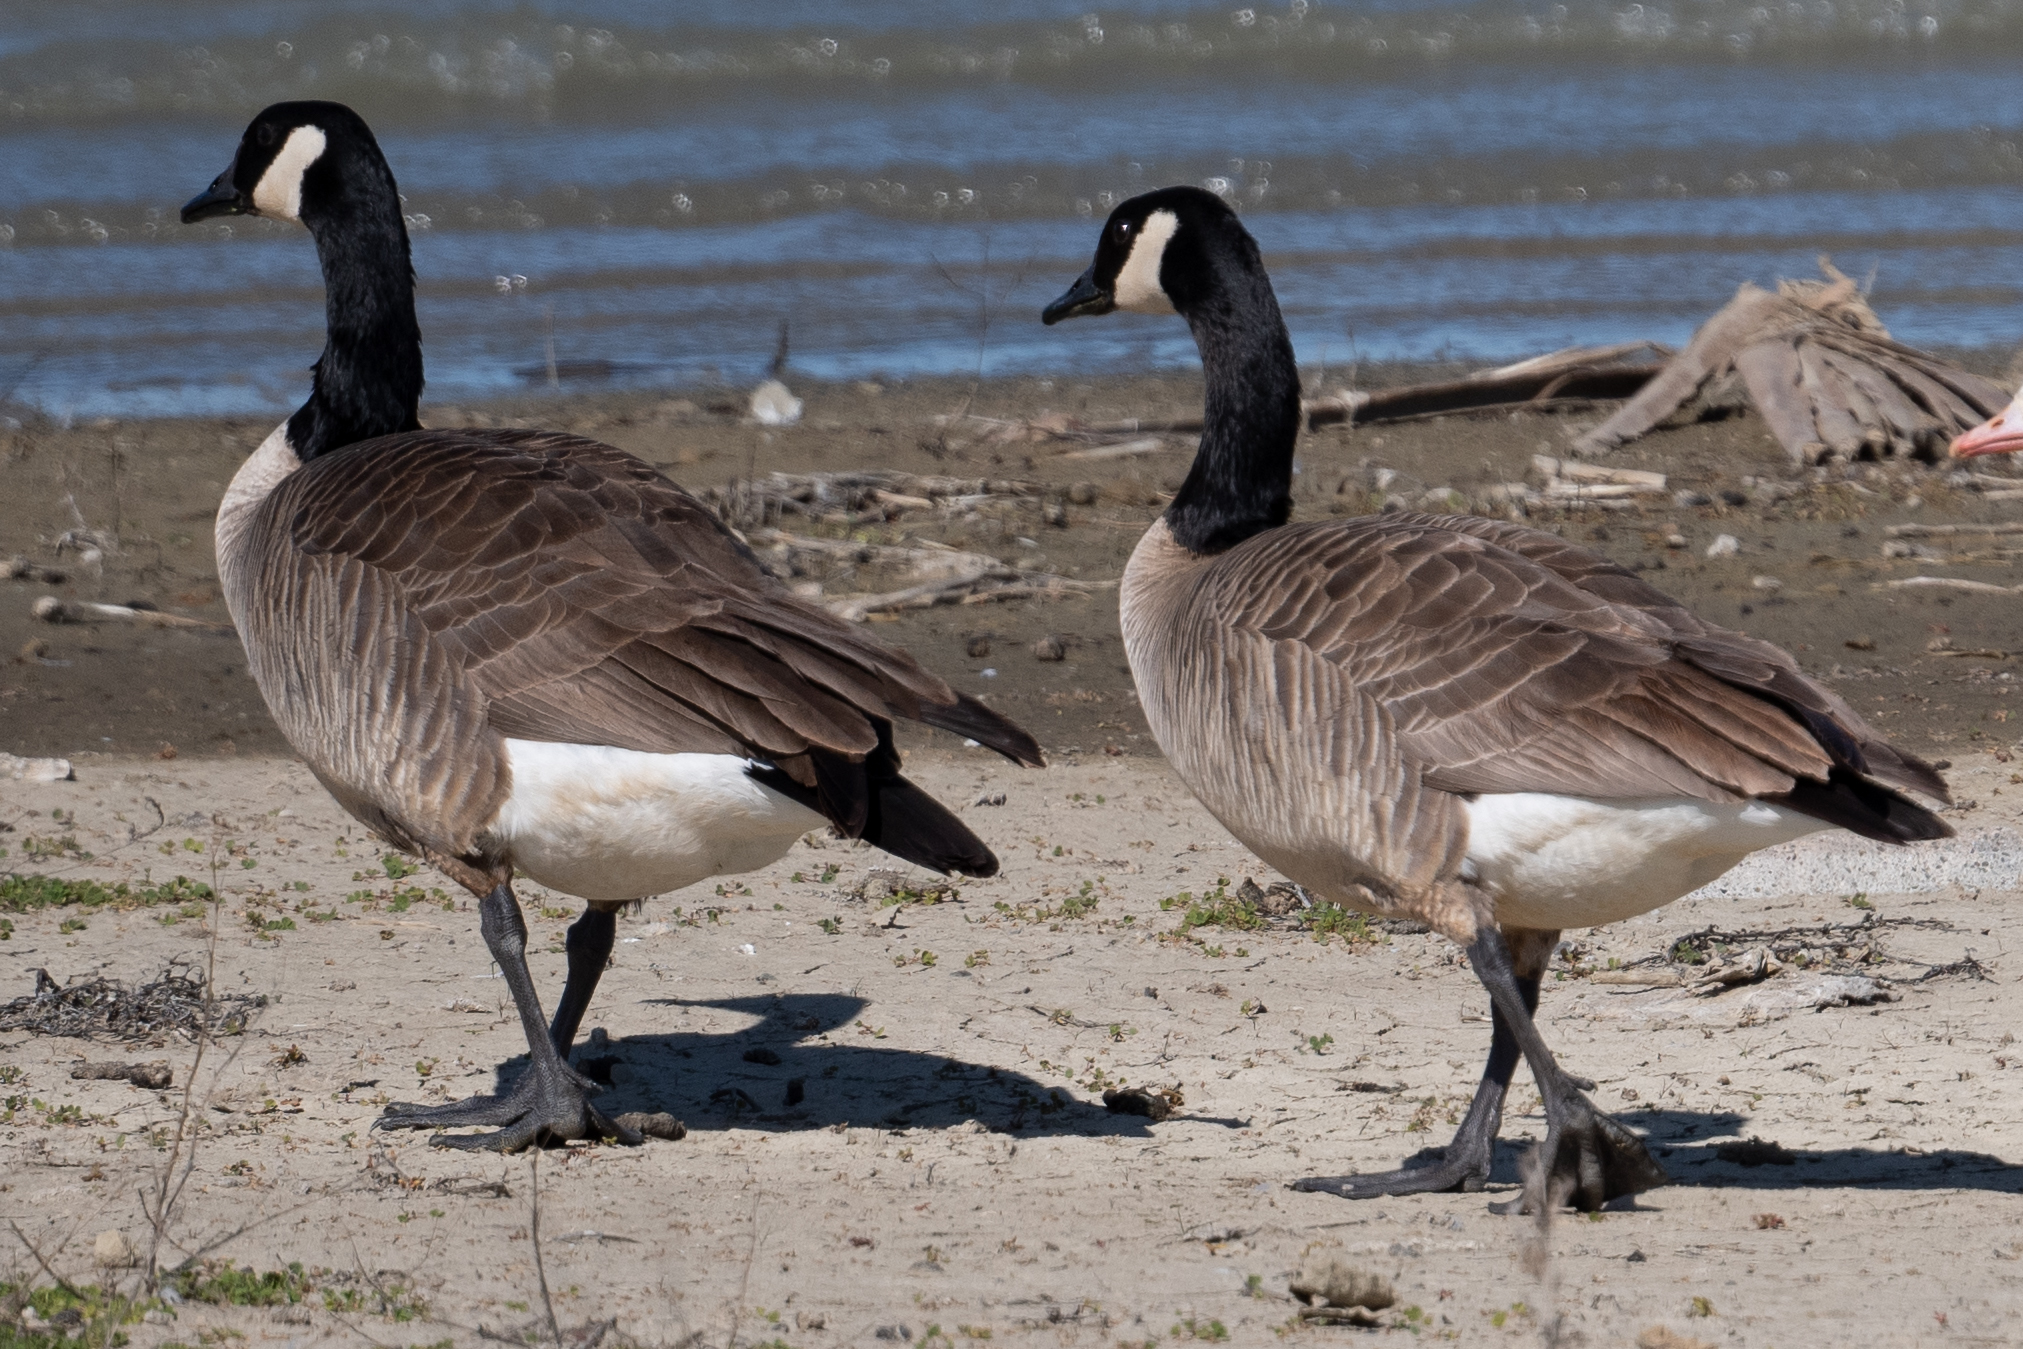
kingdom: Animalia
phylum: Chordata
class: Aves
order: Anseriformes
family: Anatidae
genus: Branta
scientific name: Branta canadensis
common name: Canada goose
